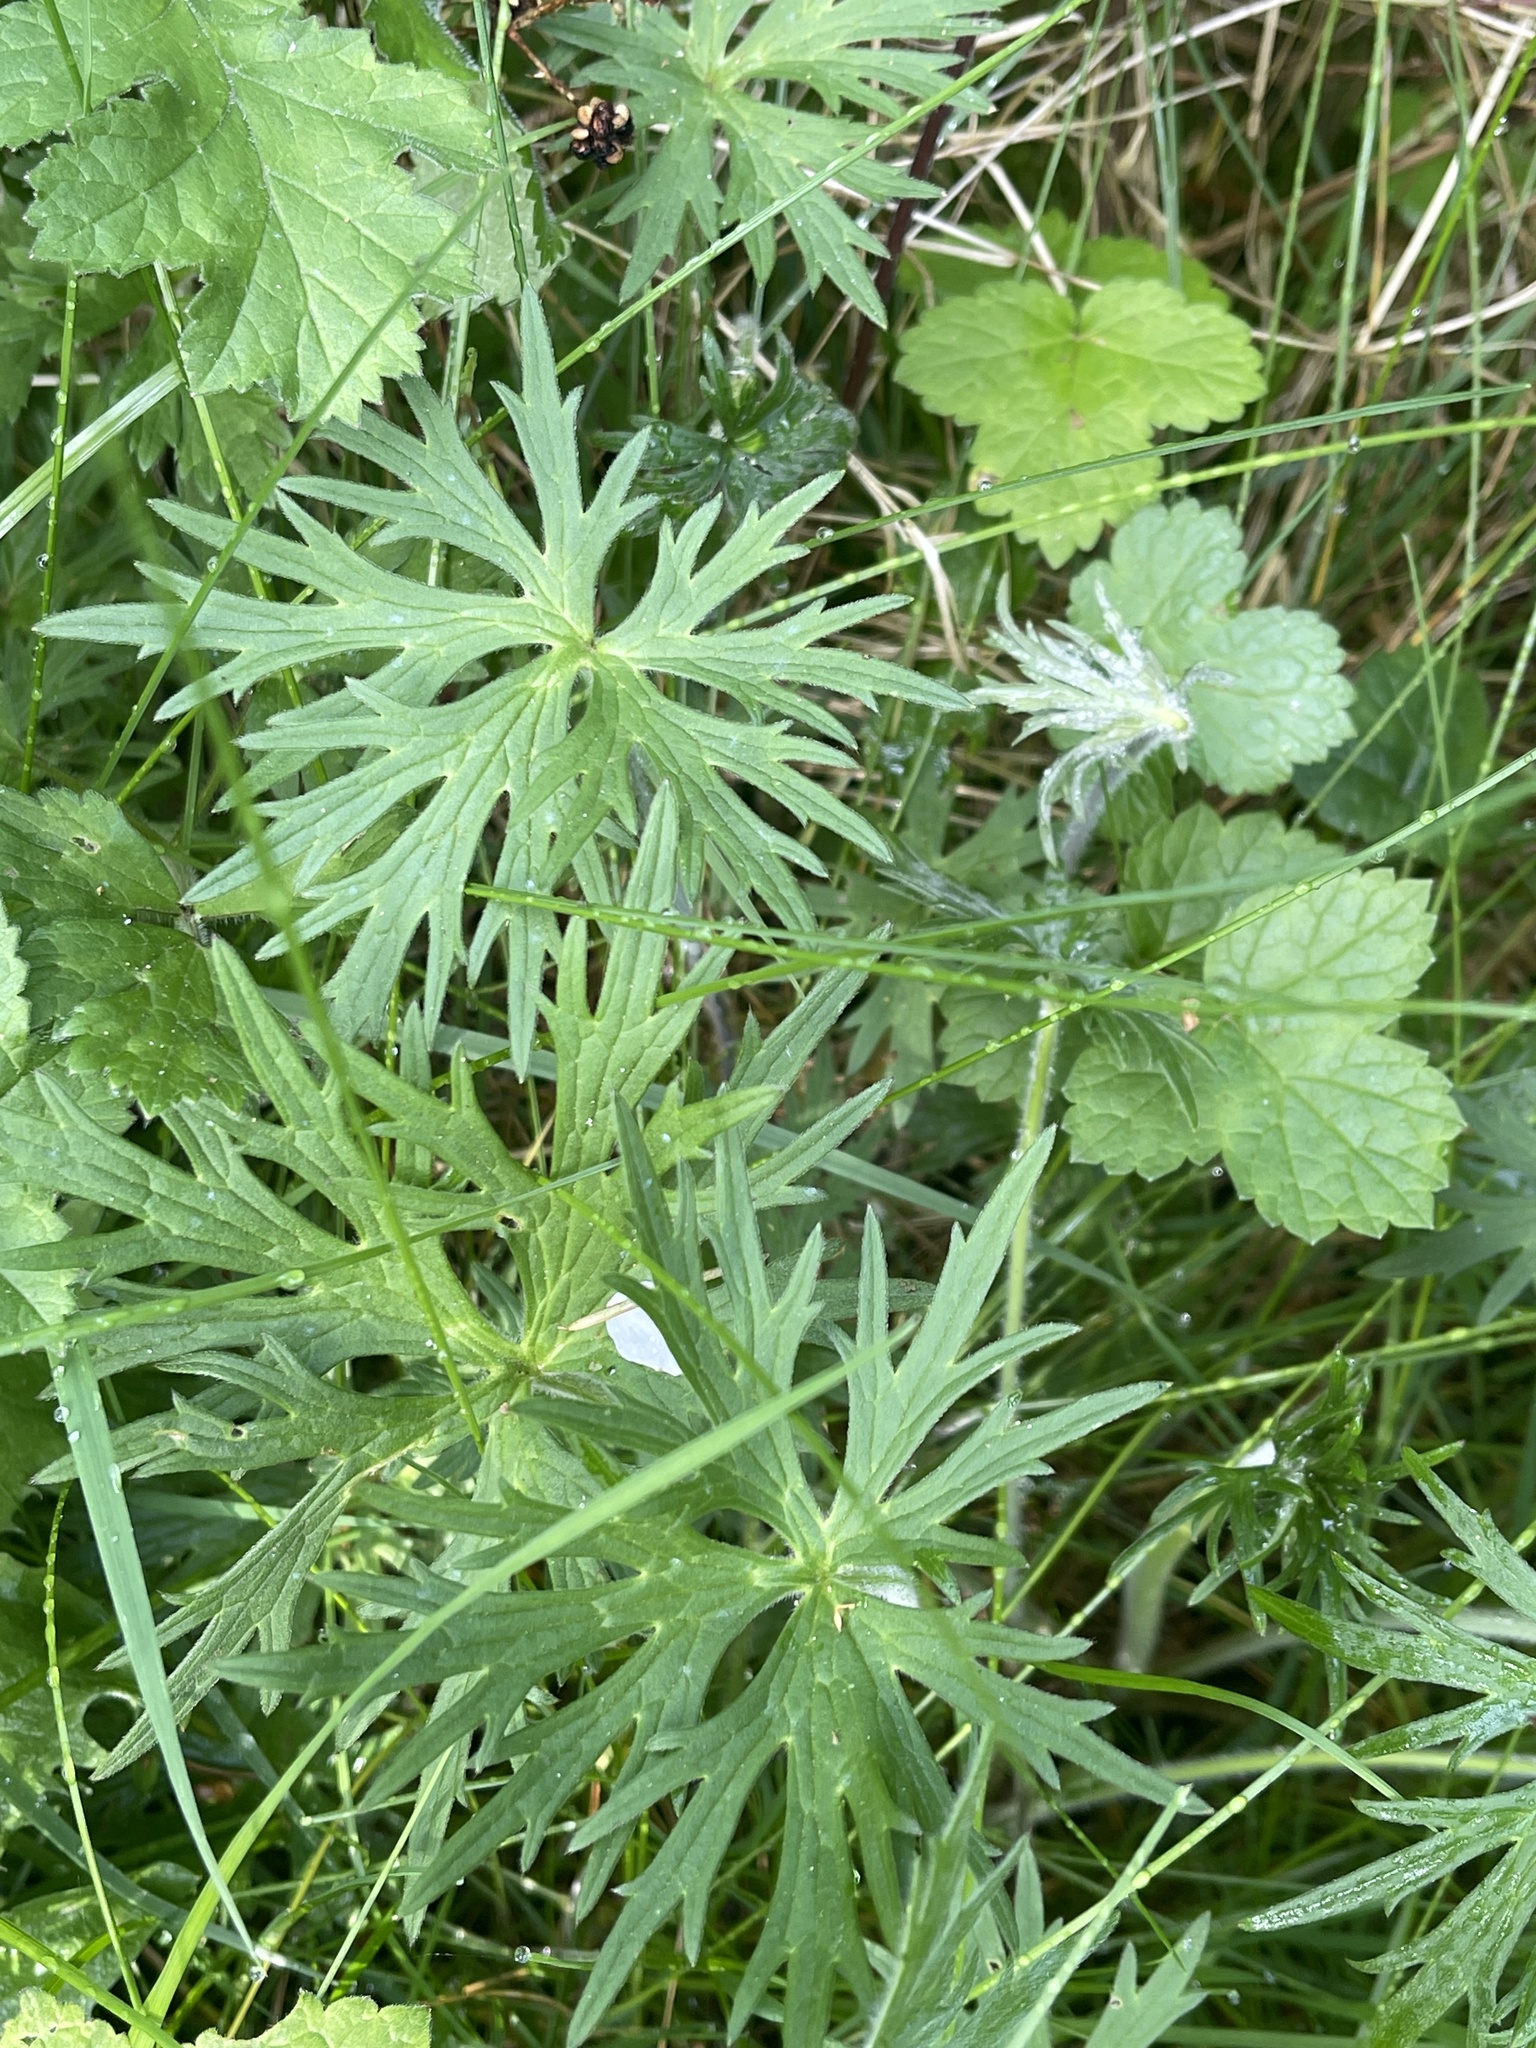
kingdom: Plantae
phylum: Tracheophyta
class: Magnoliopsida
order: Geraniales
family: Geraniaceae
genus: Geranium
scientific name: Geranium pratense
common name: Meadow crane's-bill
